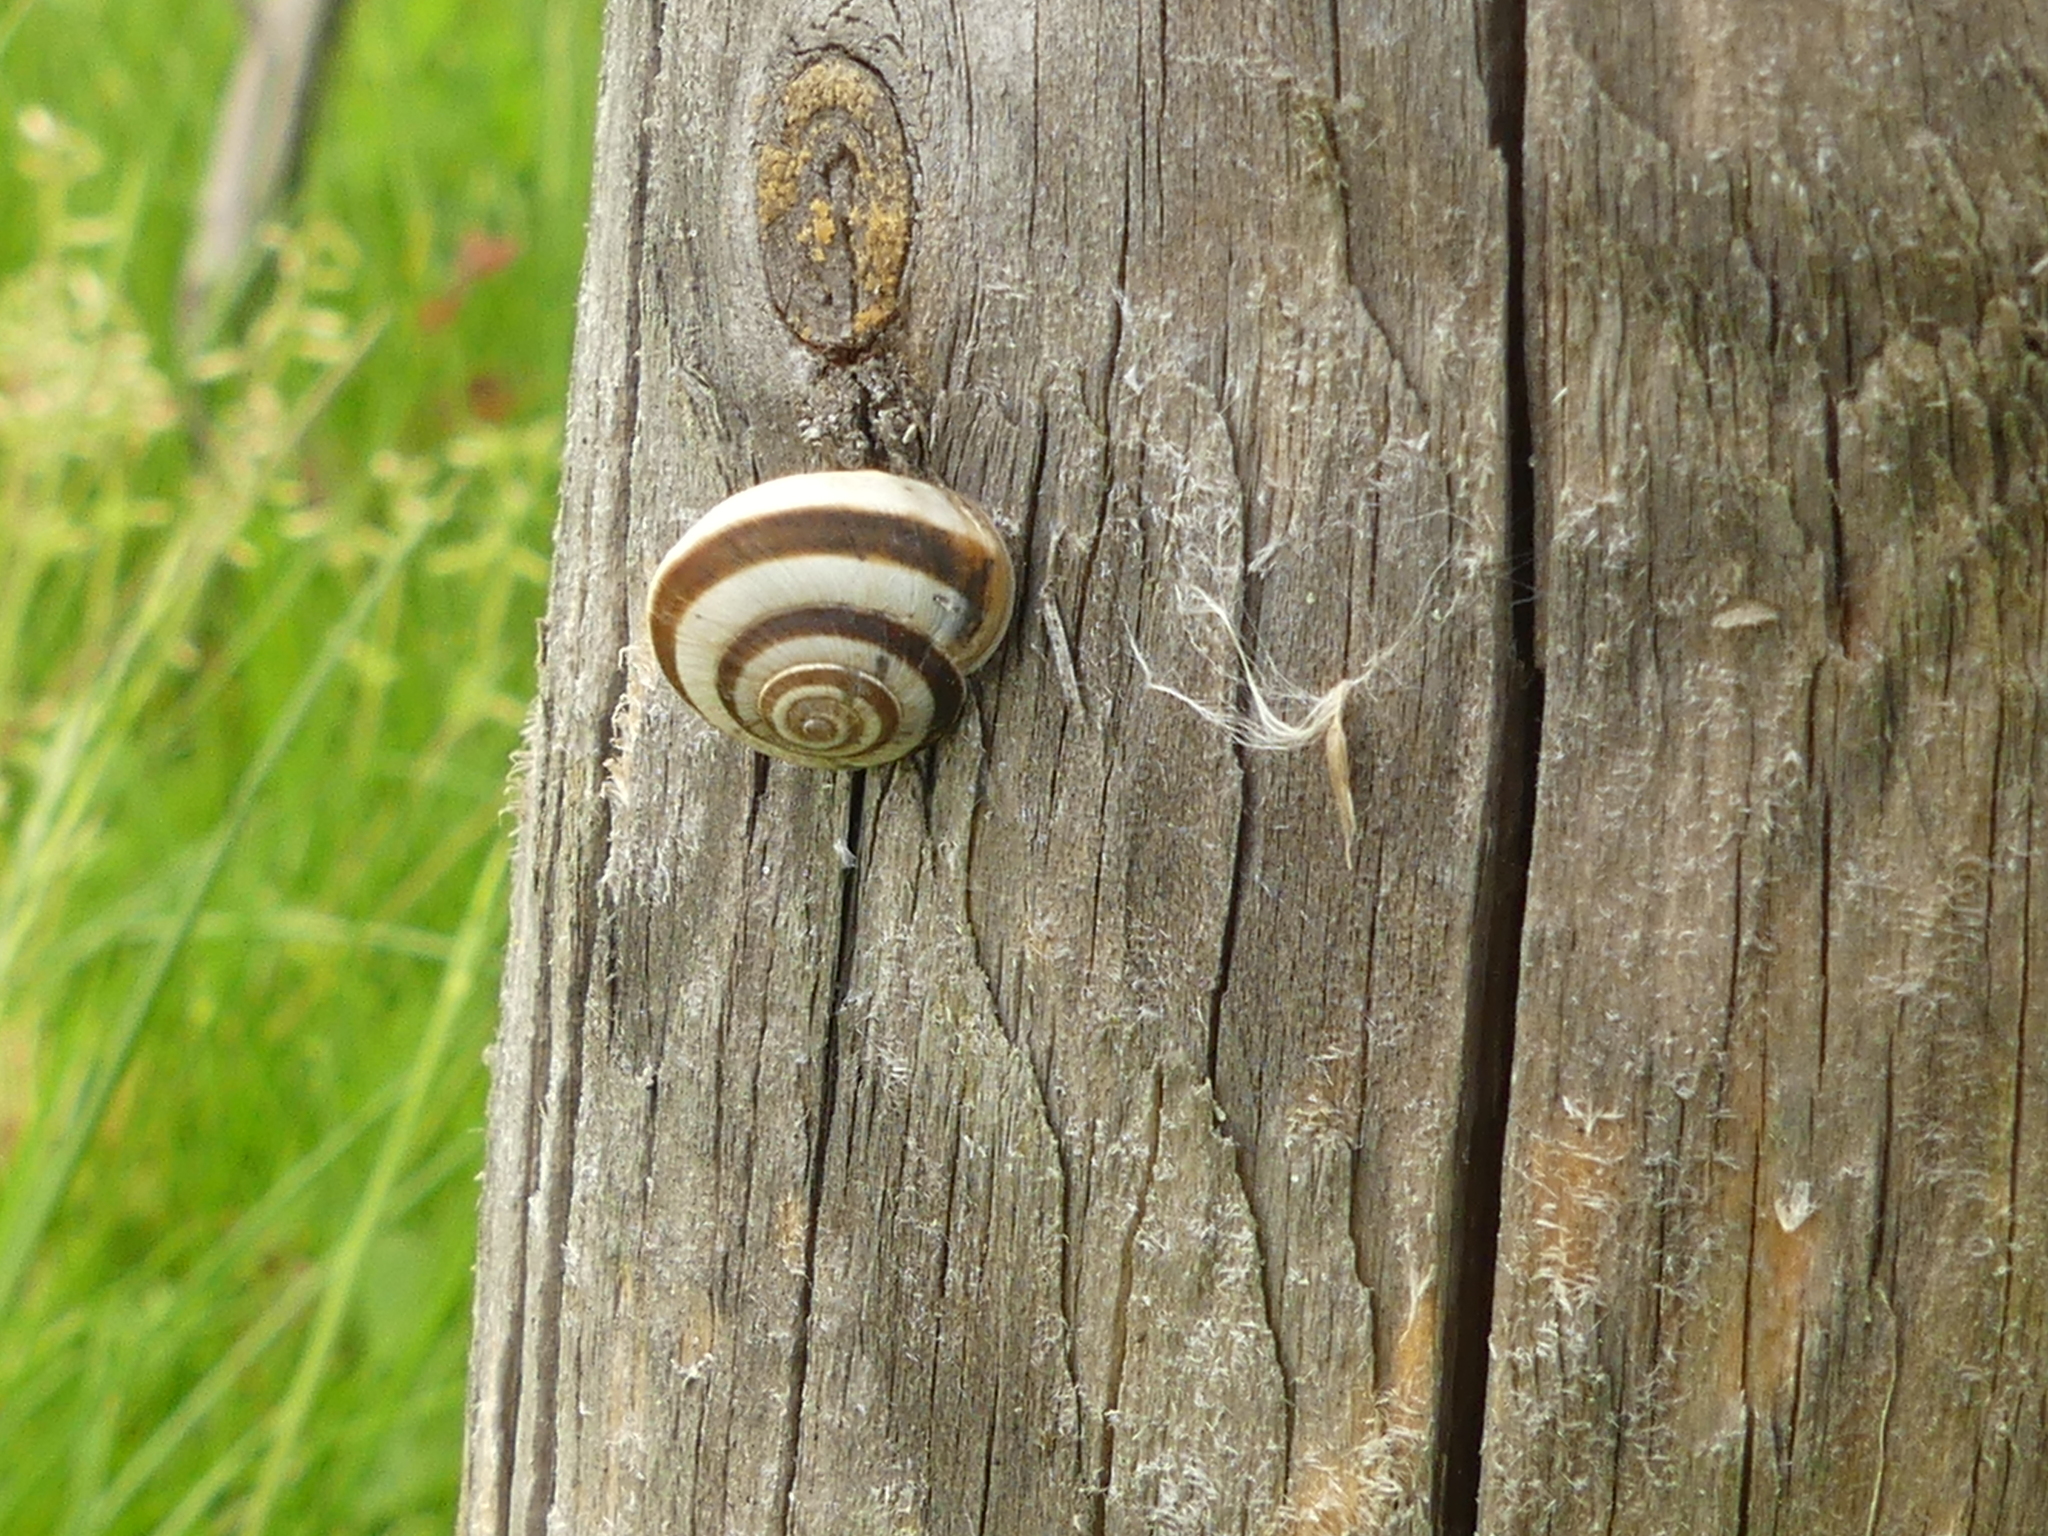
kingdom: Animalia
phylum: Mollusca
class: Gastropoda
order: Stylommatophora
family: Geomitridae
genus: Cernuella
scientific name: Cernuella virgata
